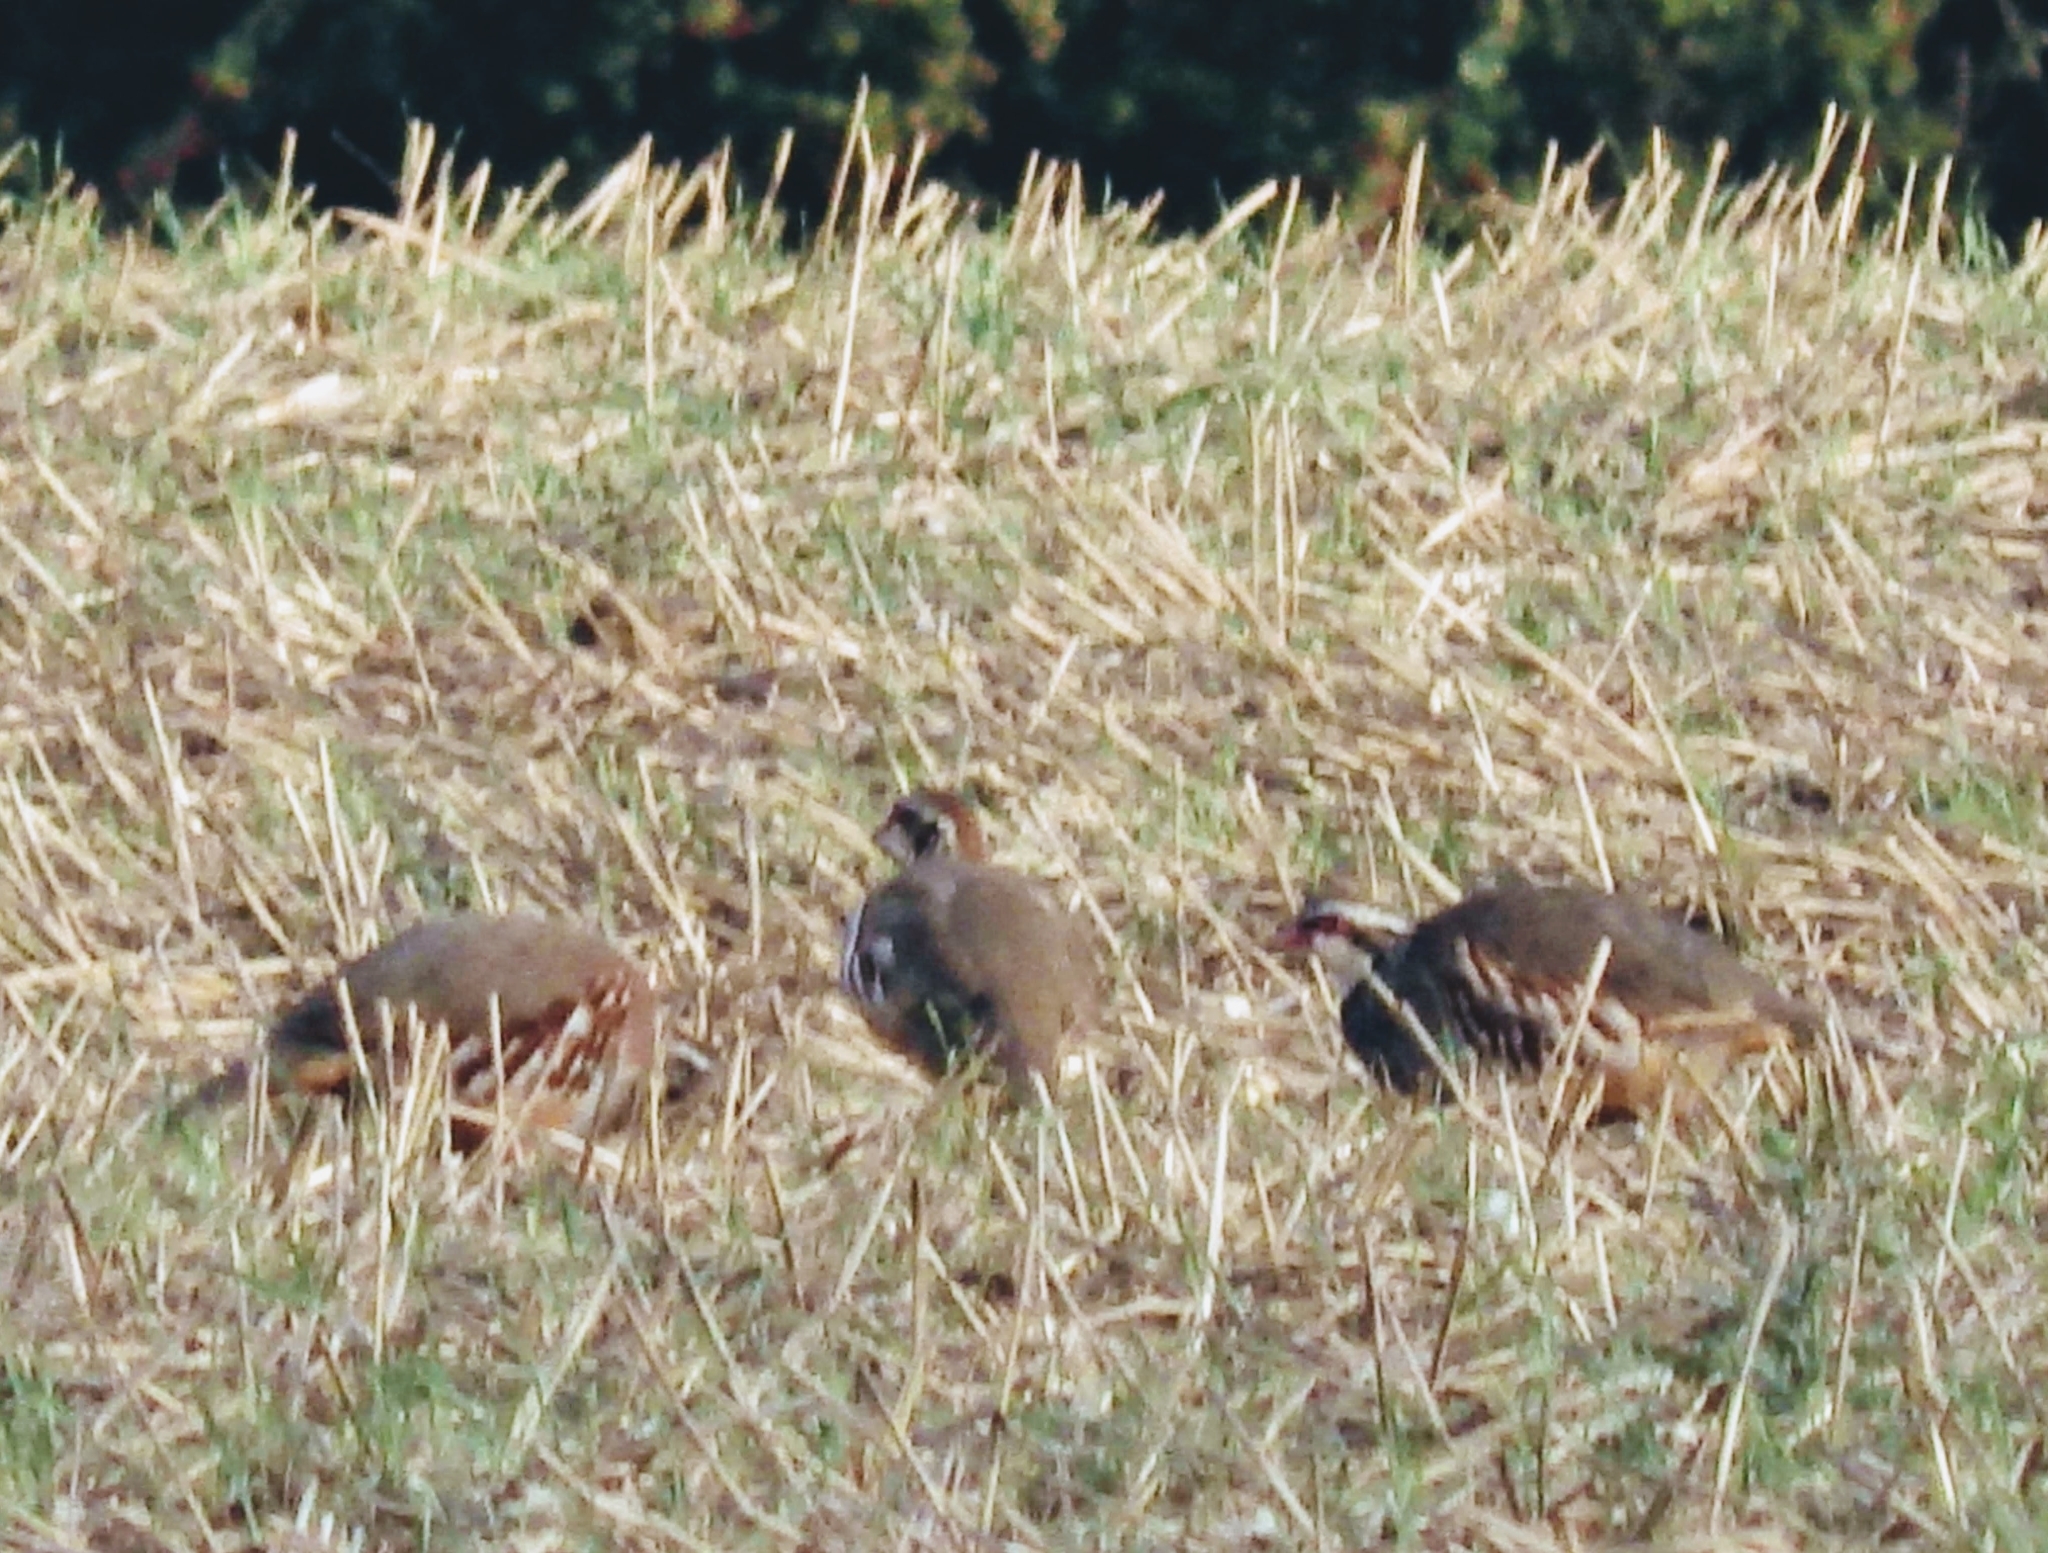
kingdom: Animalia
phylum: Chordata
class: Aves
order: Galliformes
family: Phasianidae
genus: Alectoris
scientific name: Alectoris rufa
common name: Red-legged partridge
